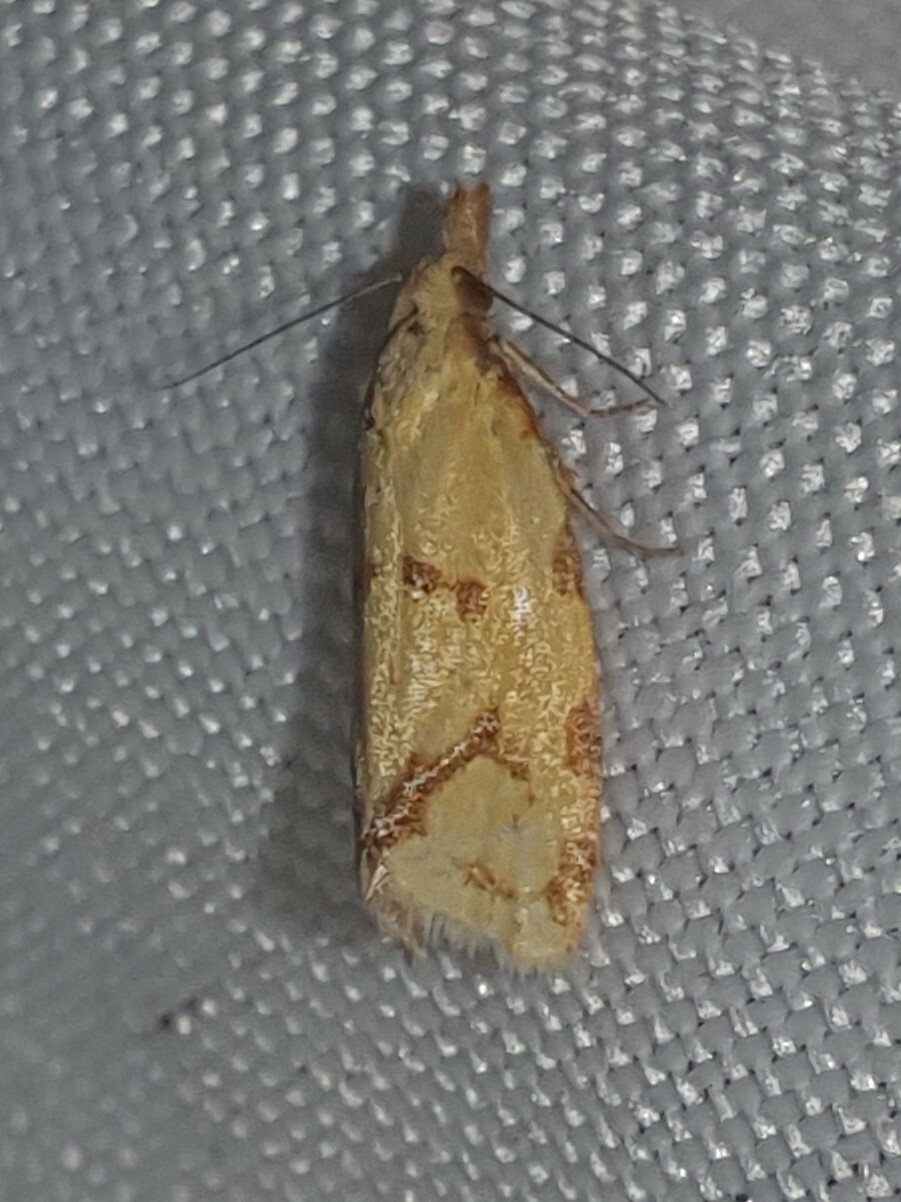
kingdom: Animalia
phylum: Arthropoda
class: Insecta
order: Lepidoptera
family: Tortricidae
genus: Agapeta
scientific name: Agapeta hamana
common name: Common yellow conch
